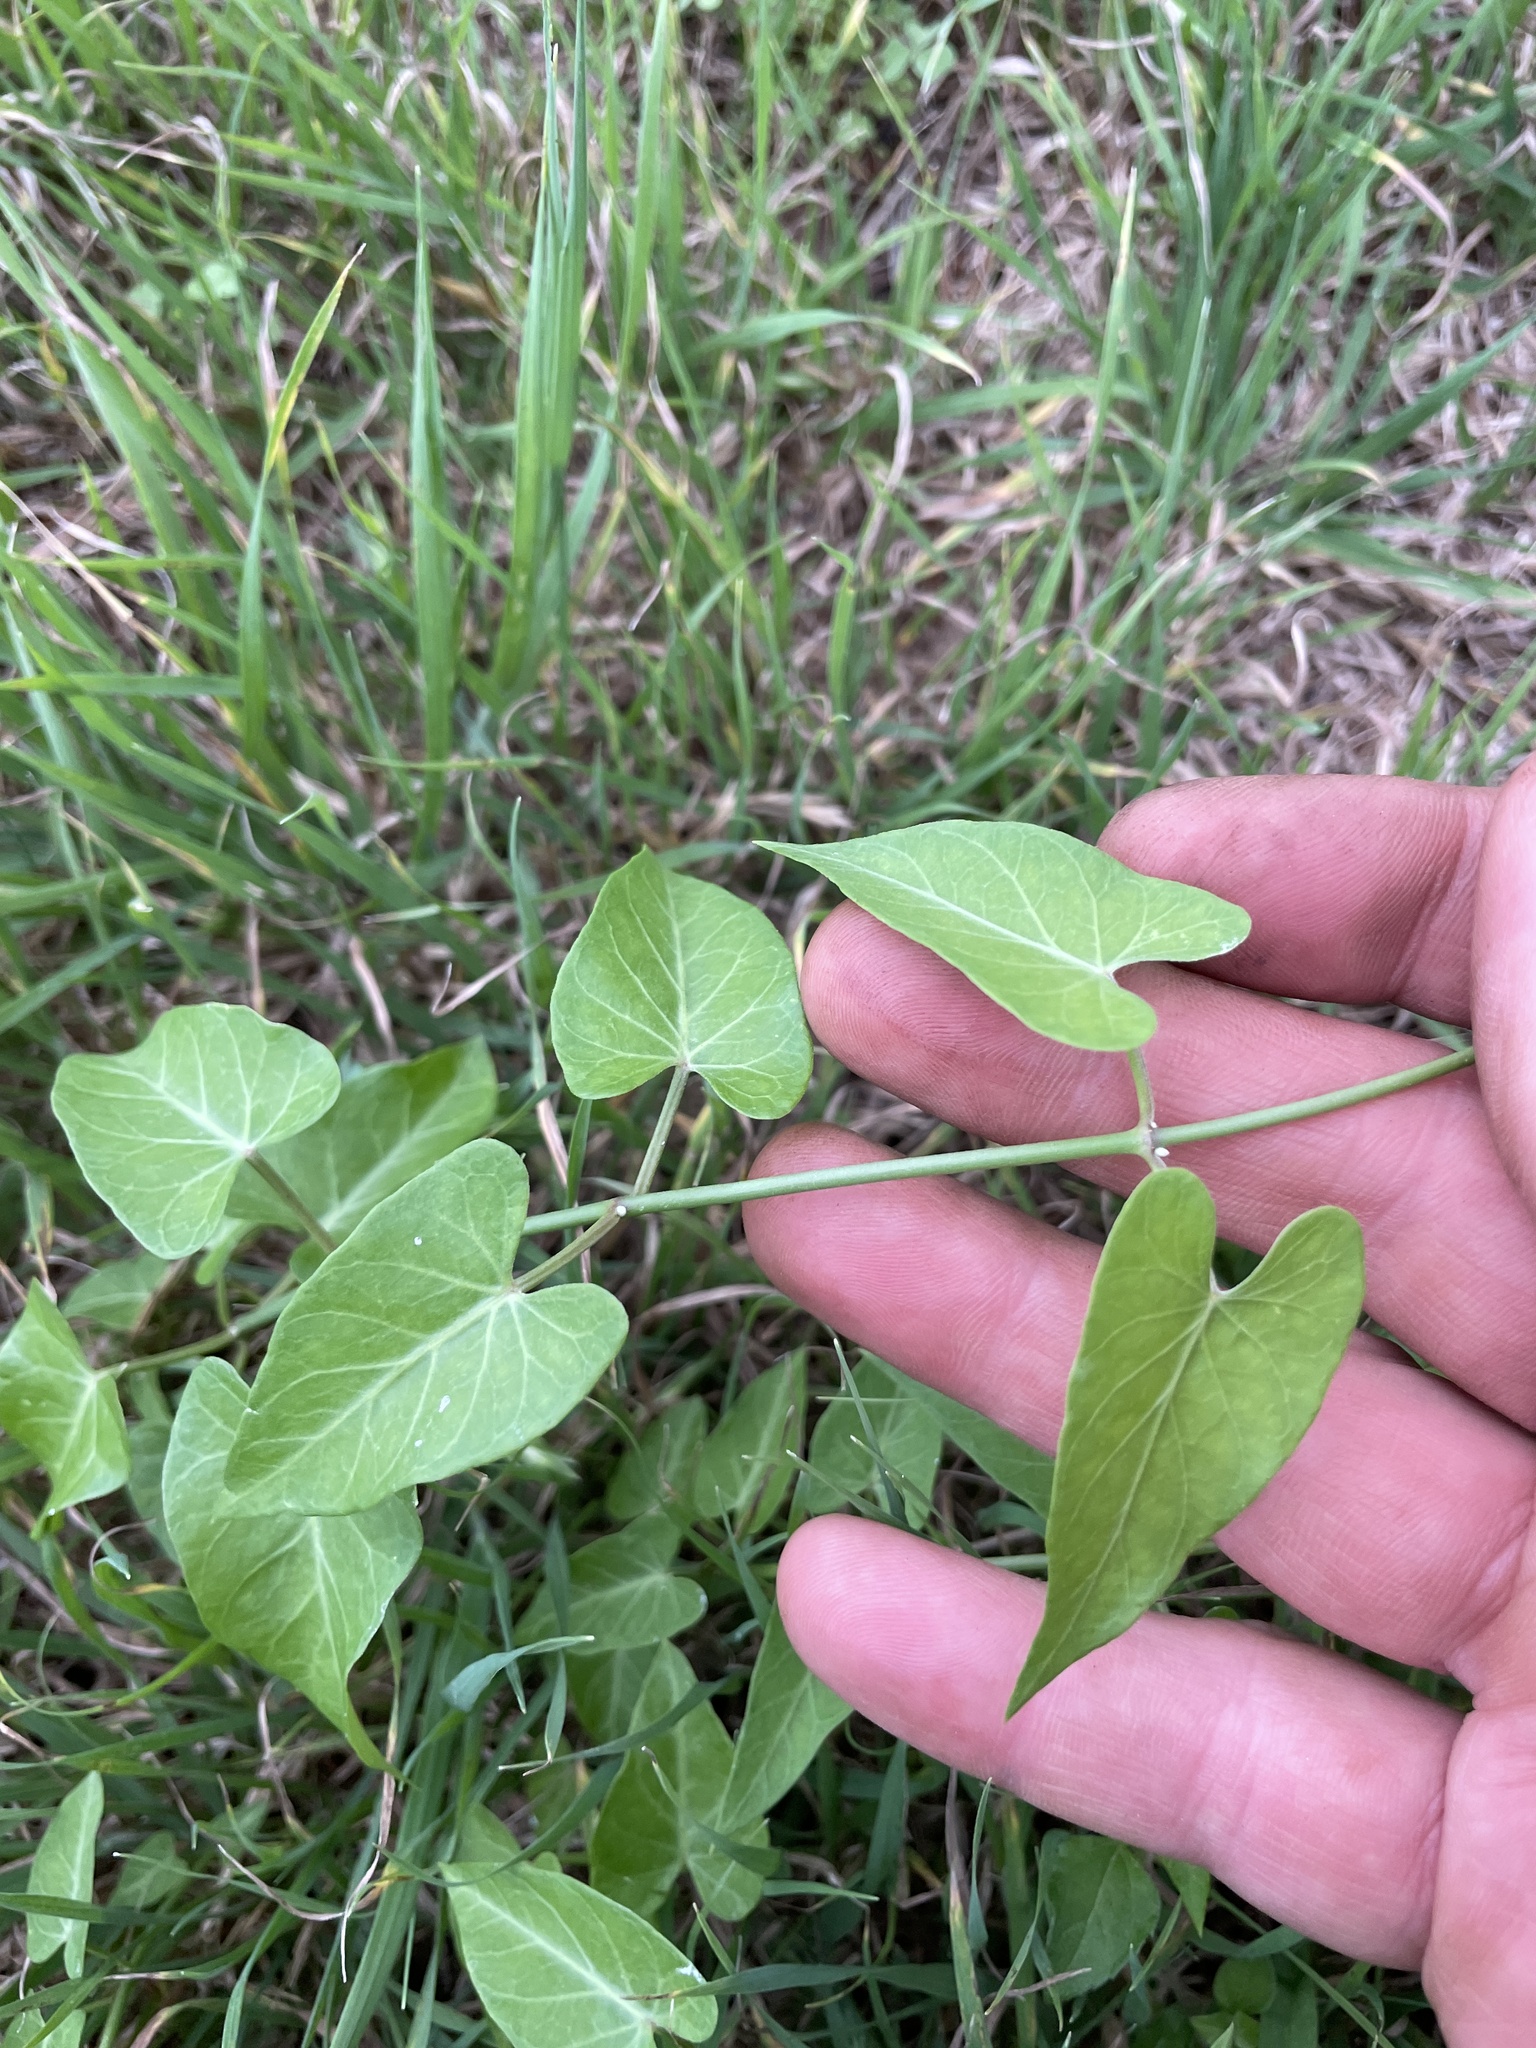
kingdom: Plantae
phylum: Tracheophyta
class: Magnoliopsida
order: Gentianales
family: Apocynaceae
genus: Funastrum
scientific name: Funastrum cynanchoides
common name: Climbing-milkweed
